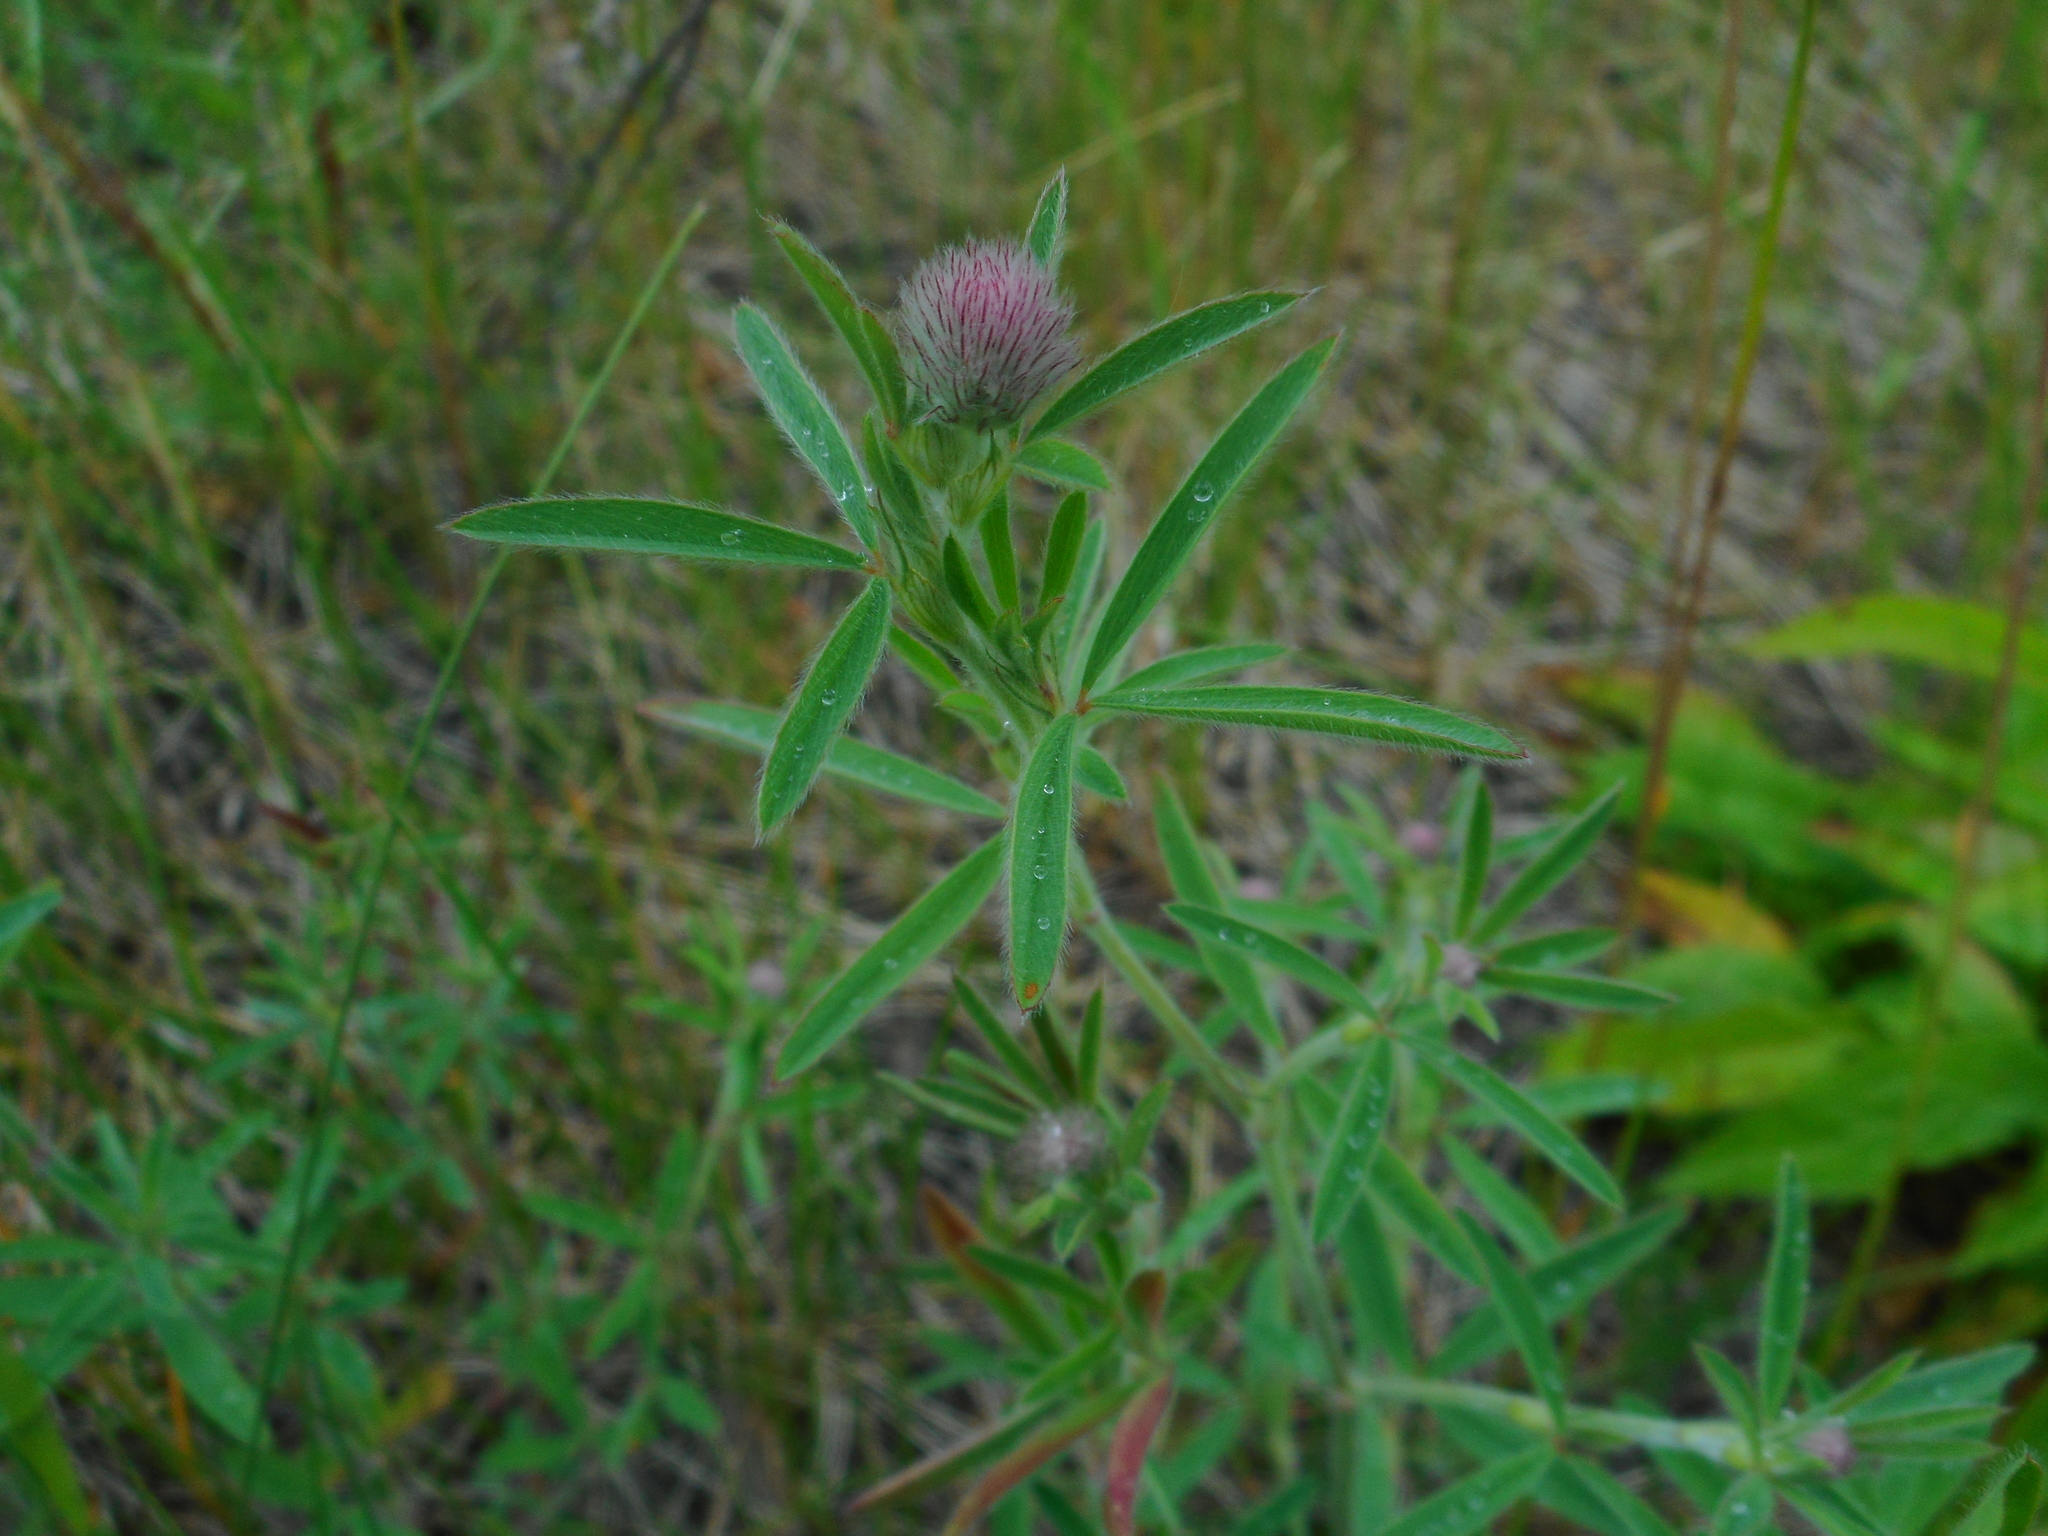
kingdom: Plantae
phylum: Tracheophyta
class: Magnoliopsida
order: Fabales
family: Fabaceae
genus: Trifolium
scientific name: Trifolium arvense
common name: Hare's-foot clover
